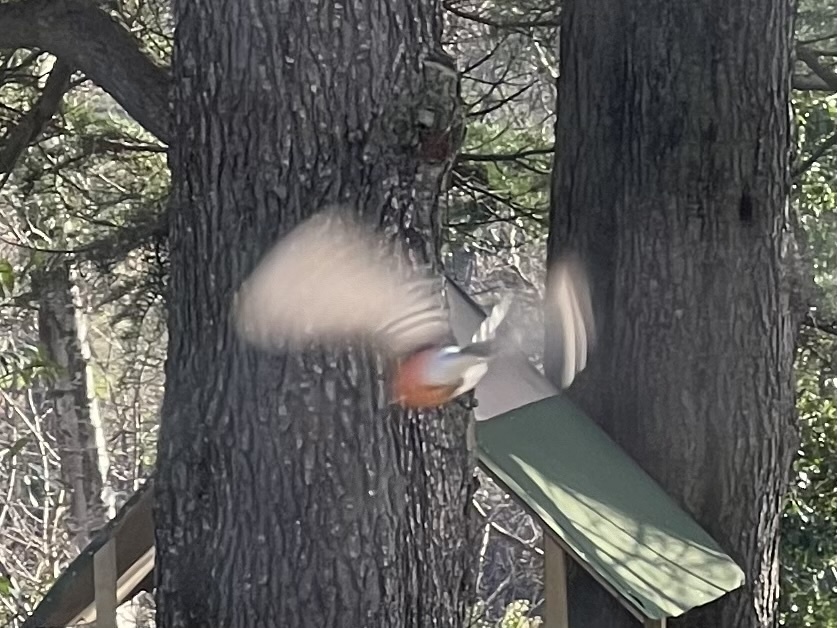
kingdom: Animalia
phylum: Chordata
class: Aves
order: Passeriformes
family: Fringillidae
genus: Pyrrhula
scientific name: Pyrrhula pyrrhula
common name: Eurasian bullfinch
